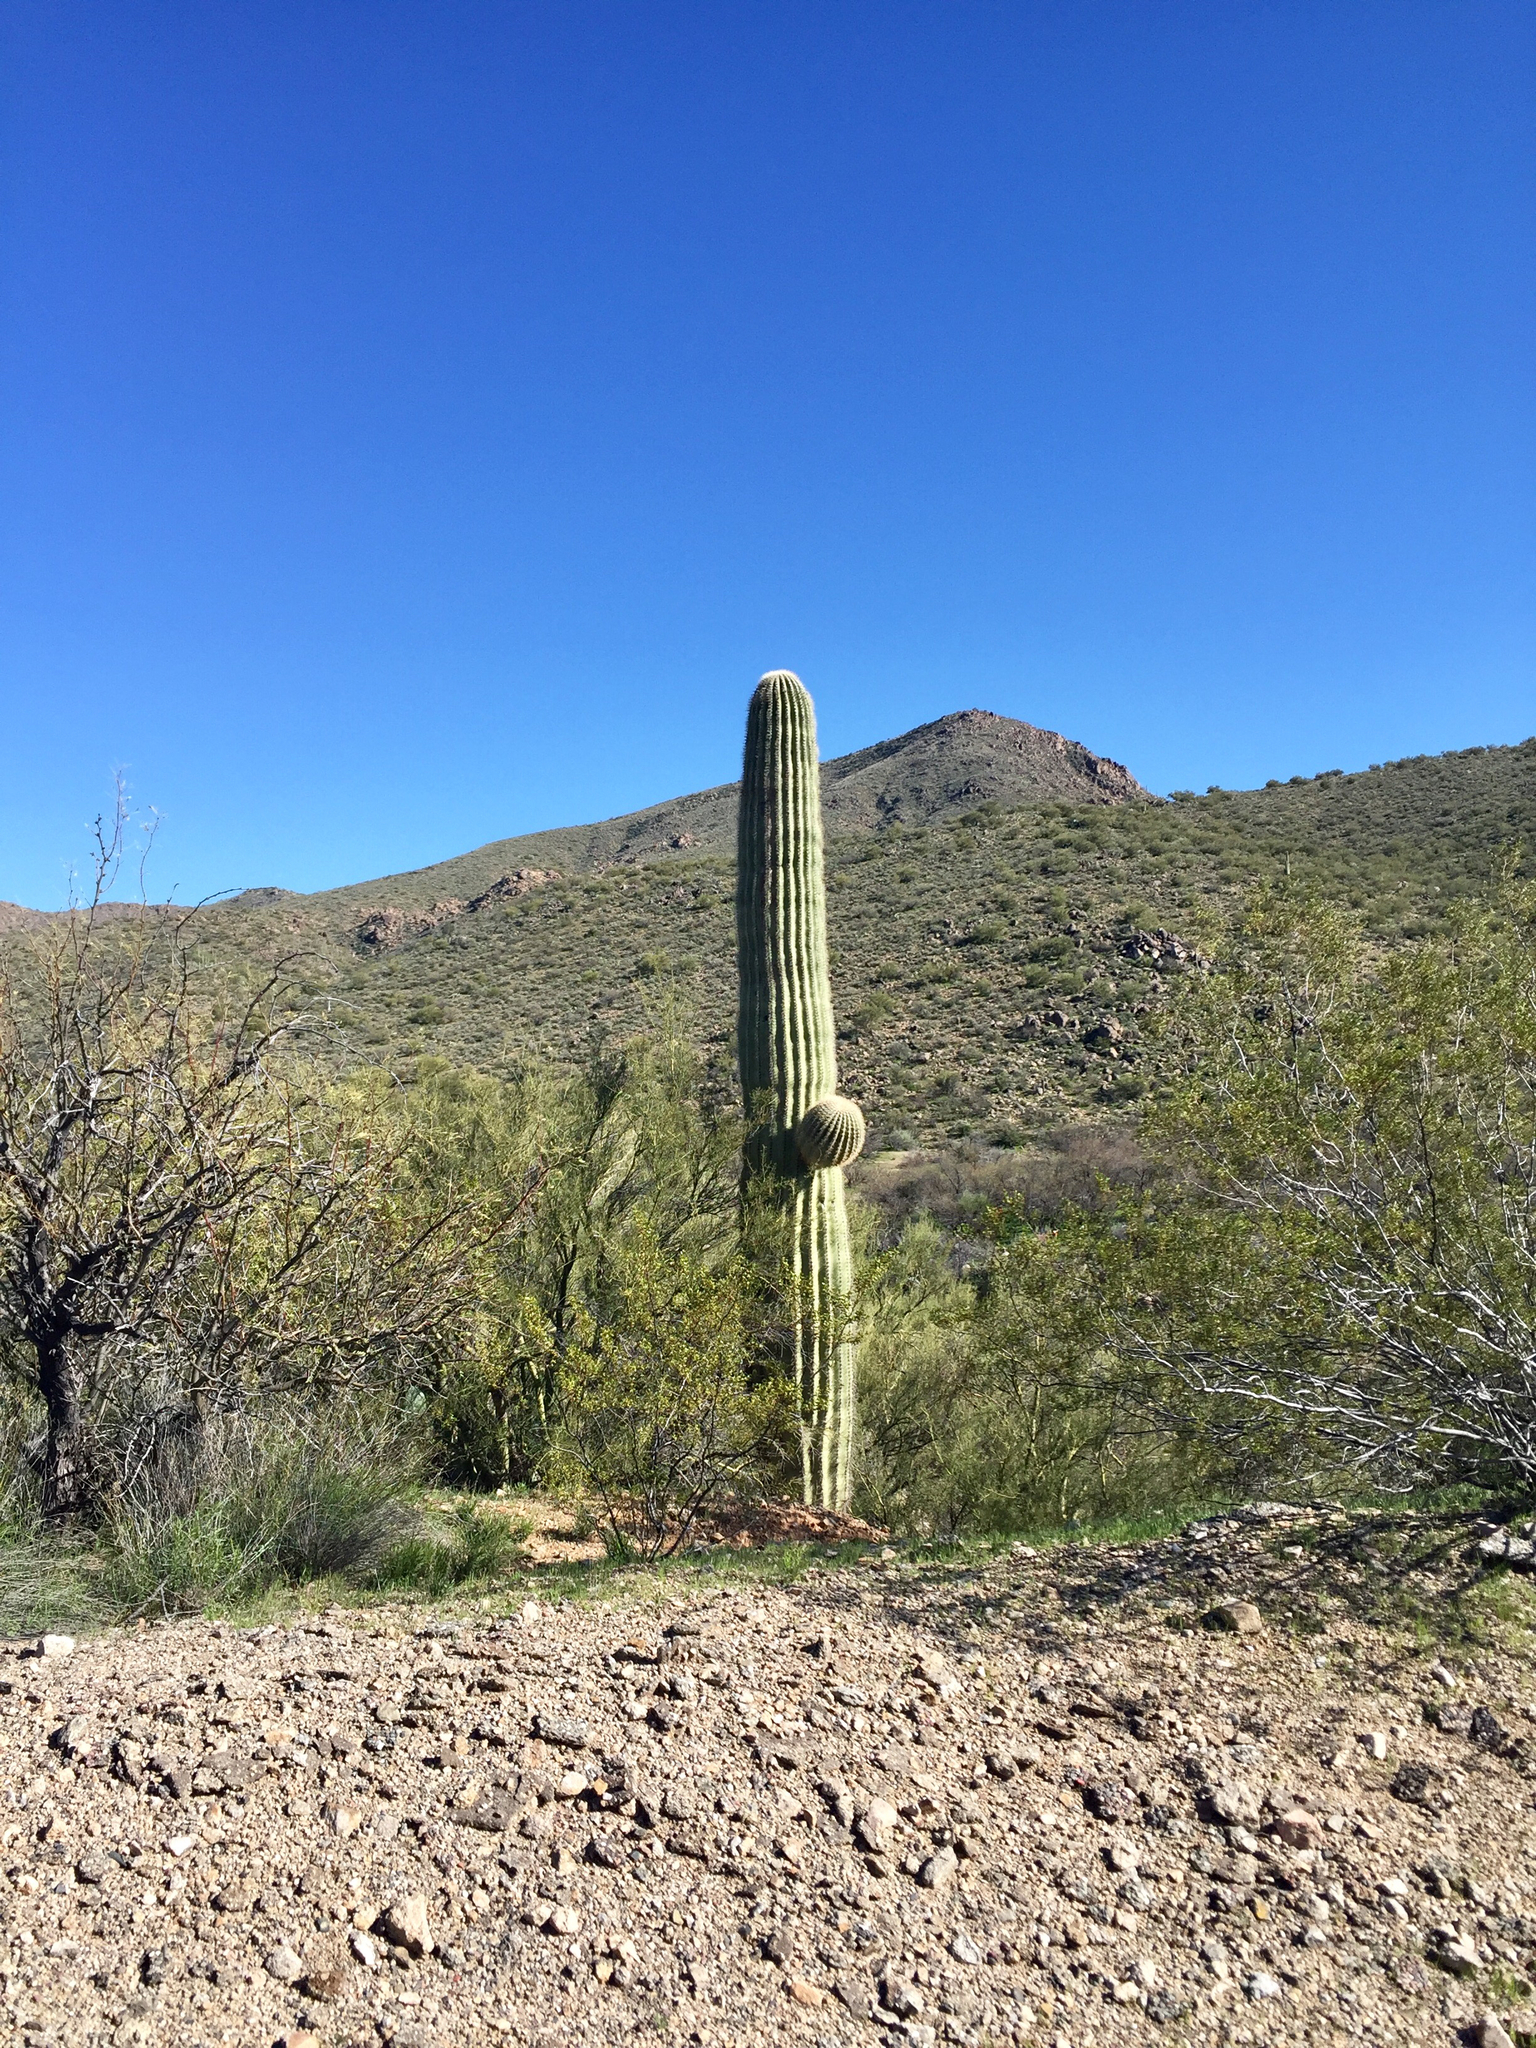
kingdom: Plantae
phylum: Tracheophyta
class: Magnoliopsida
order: Caryophyllales
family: Cactaceae
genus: Carnegiea
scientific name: Carnegiea gigantea
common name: Saguaro
